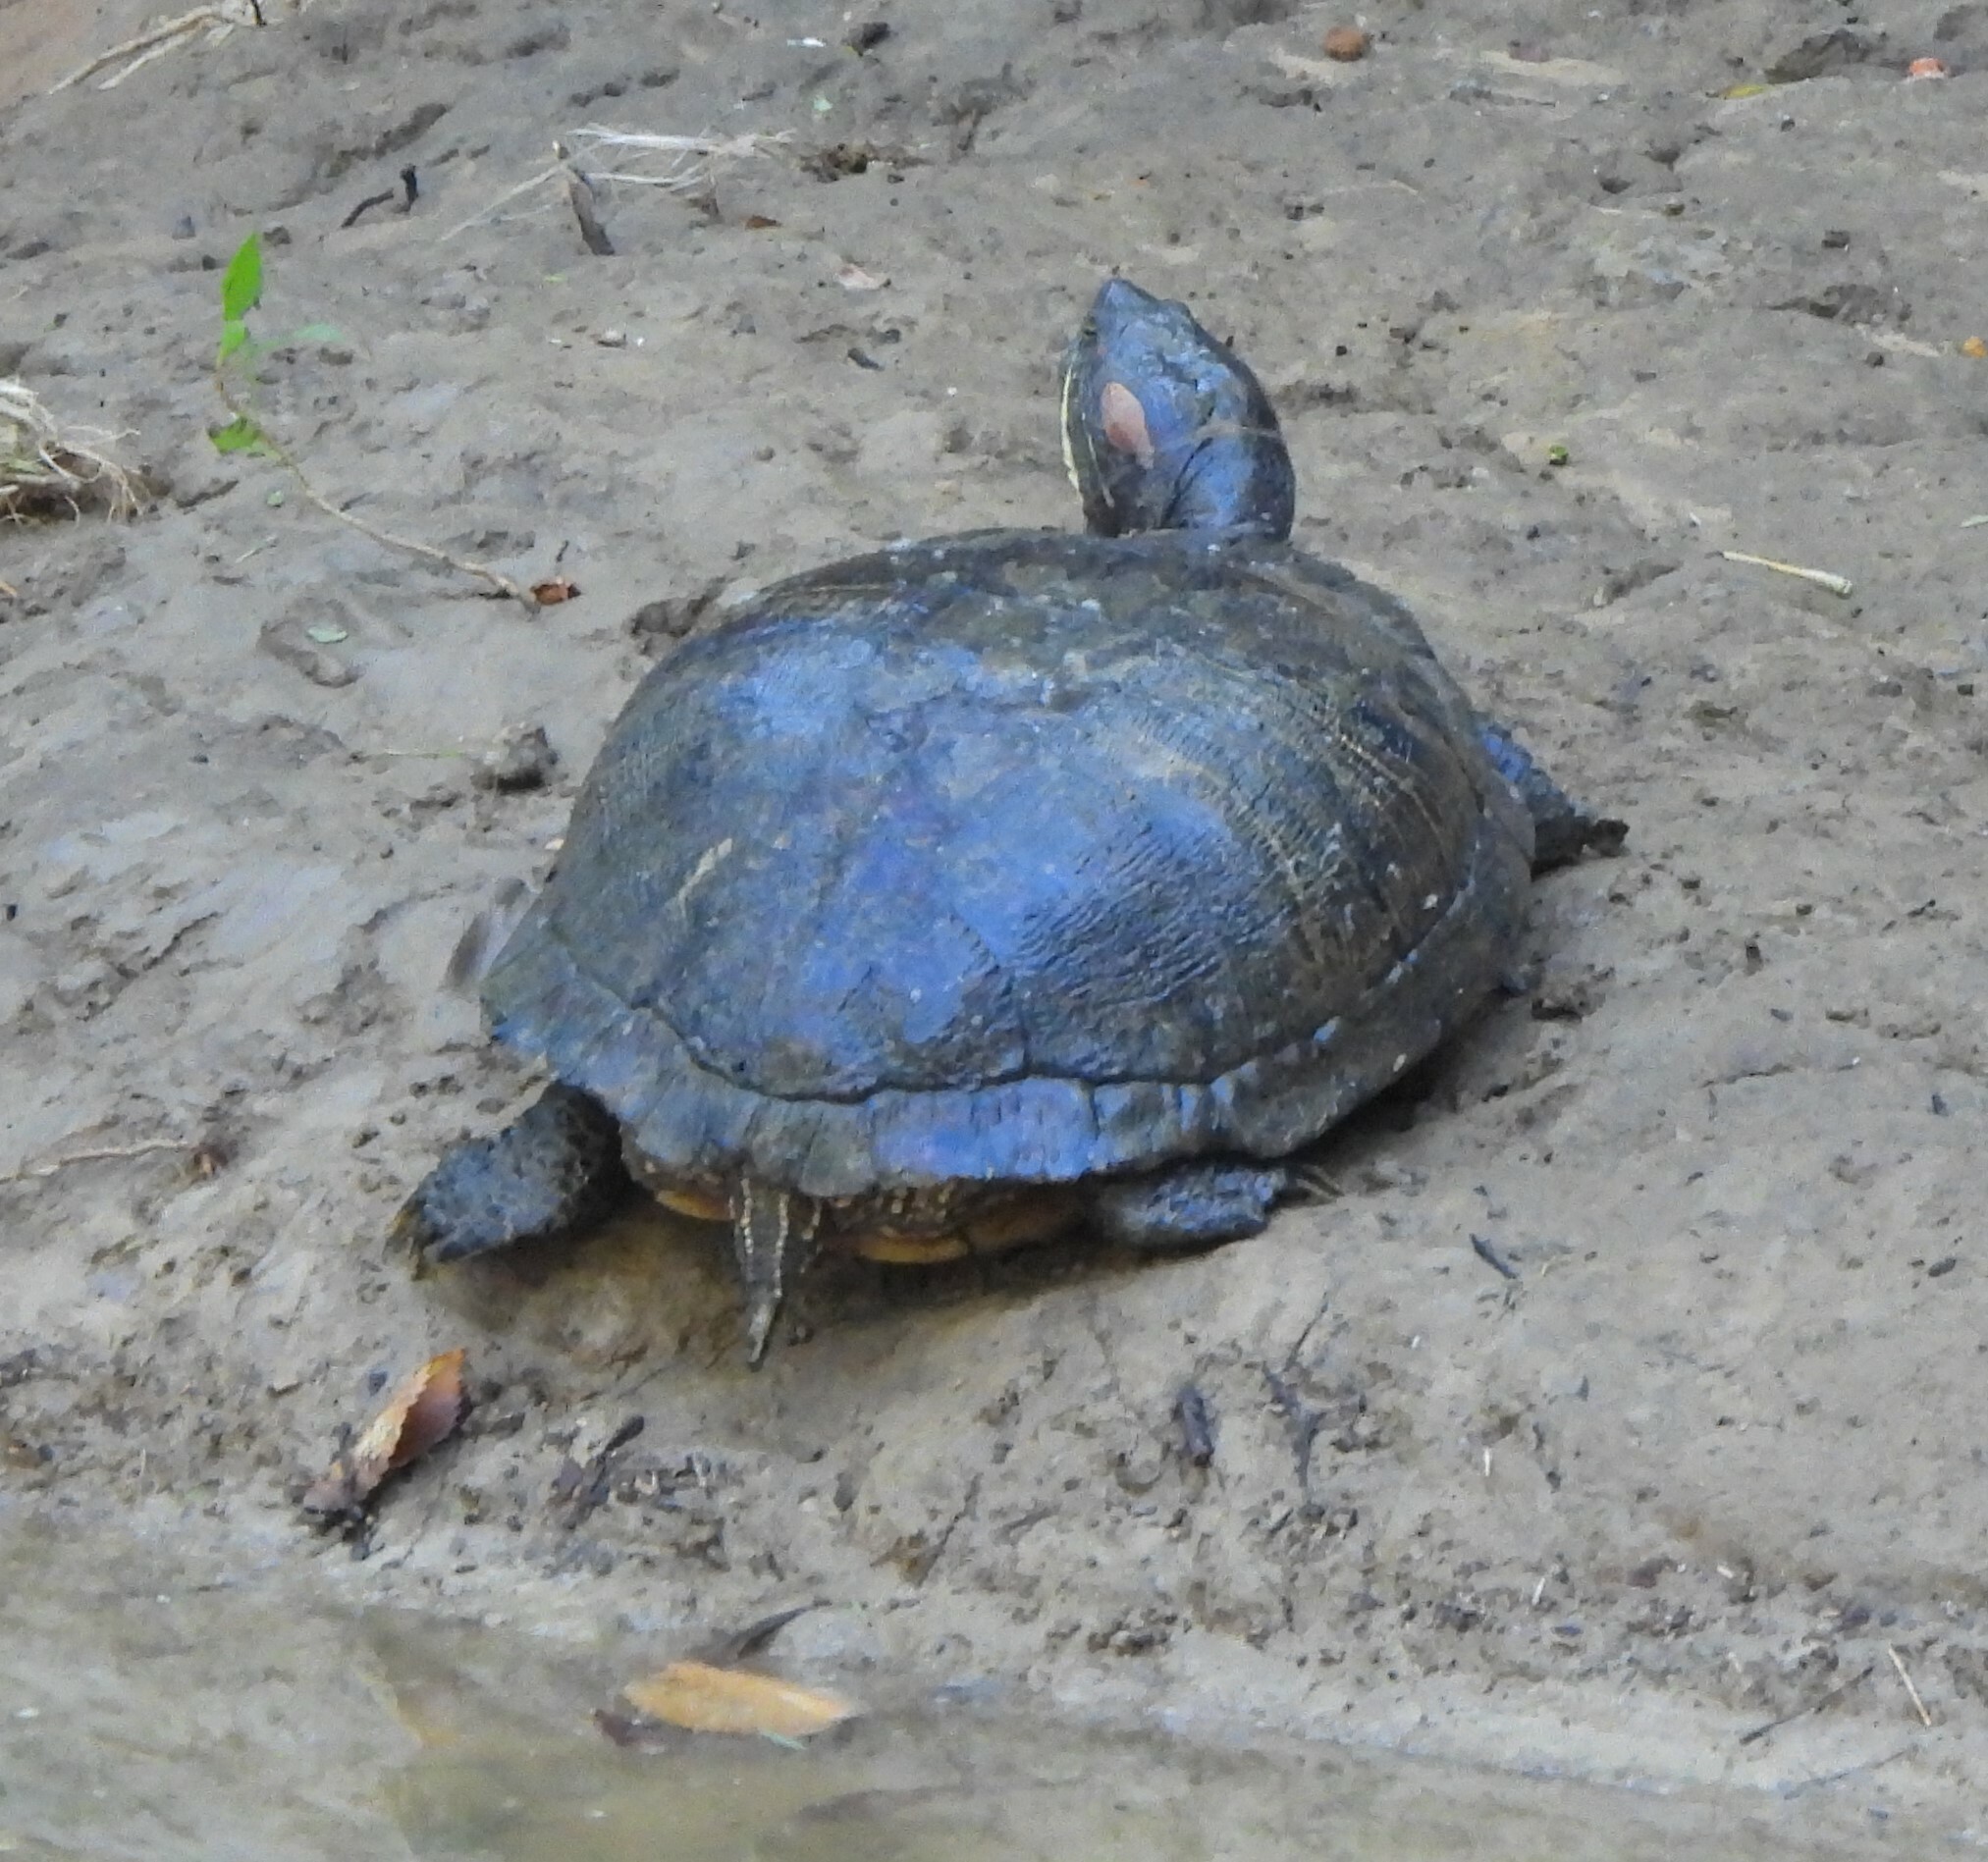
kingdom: Animalia
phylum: Chordata
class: Testudines
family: Emydidae
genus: Trachemys
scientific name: Trachemys scripta
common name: Slider
